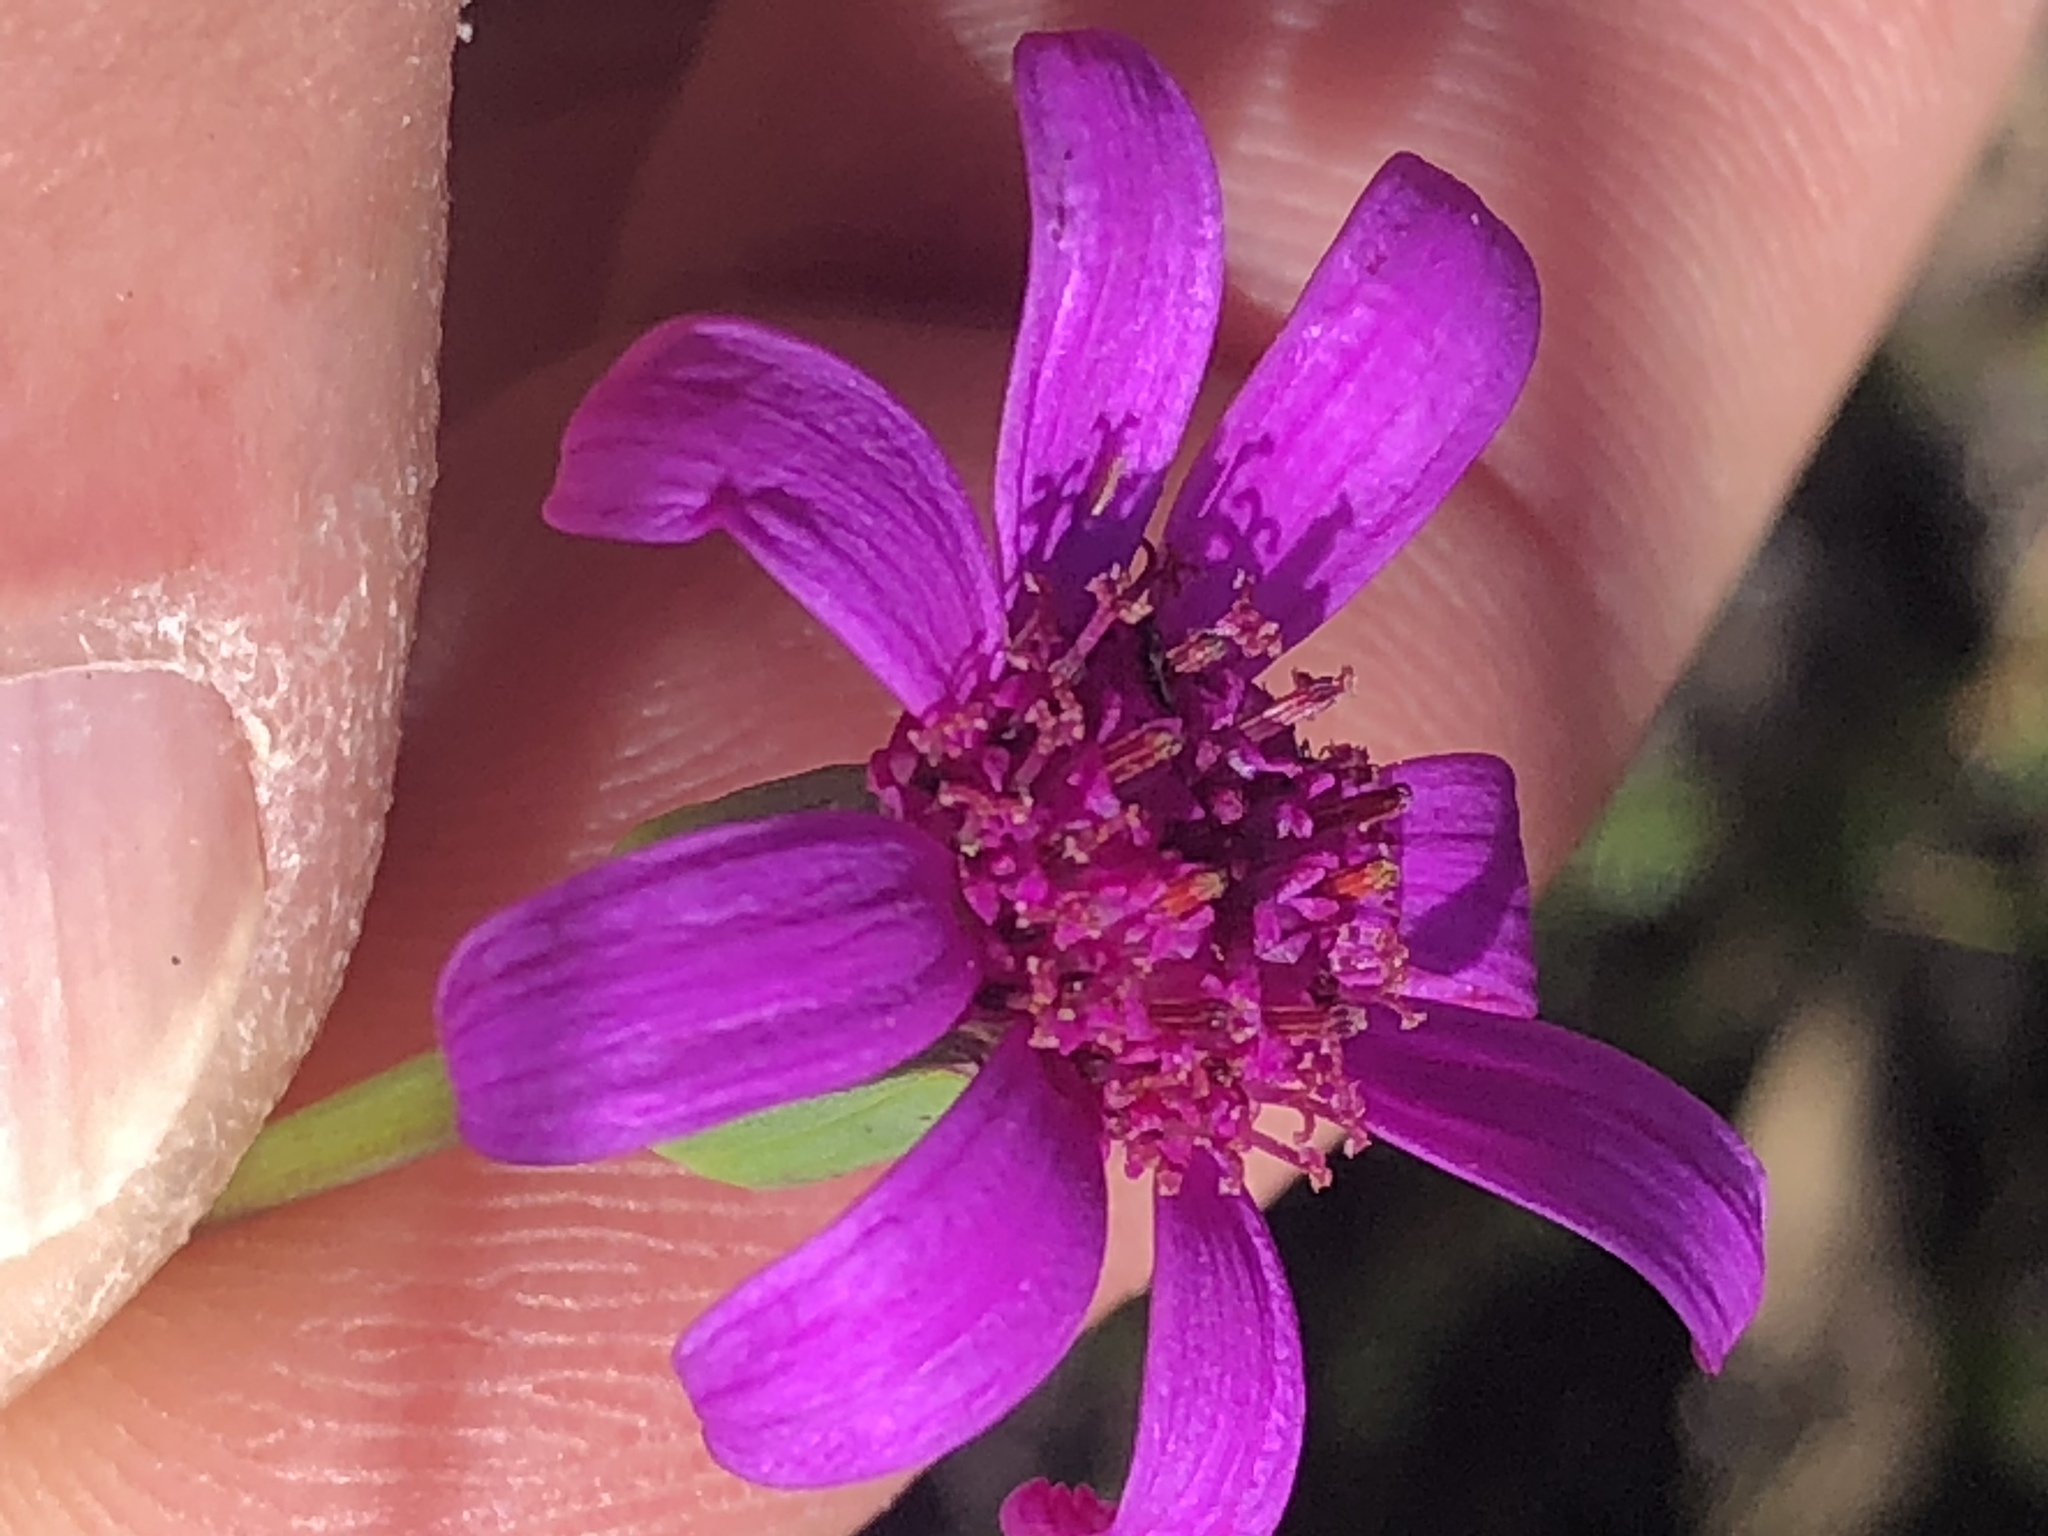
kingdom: Plantae
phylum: Tracheophyta
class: Magnoliopsida
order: Asterales
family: Asteraceae
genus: Senecio
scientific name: Senecio cymbalariifolius
